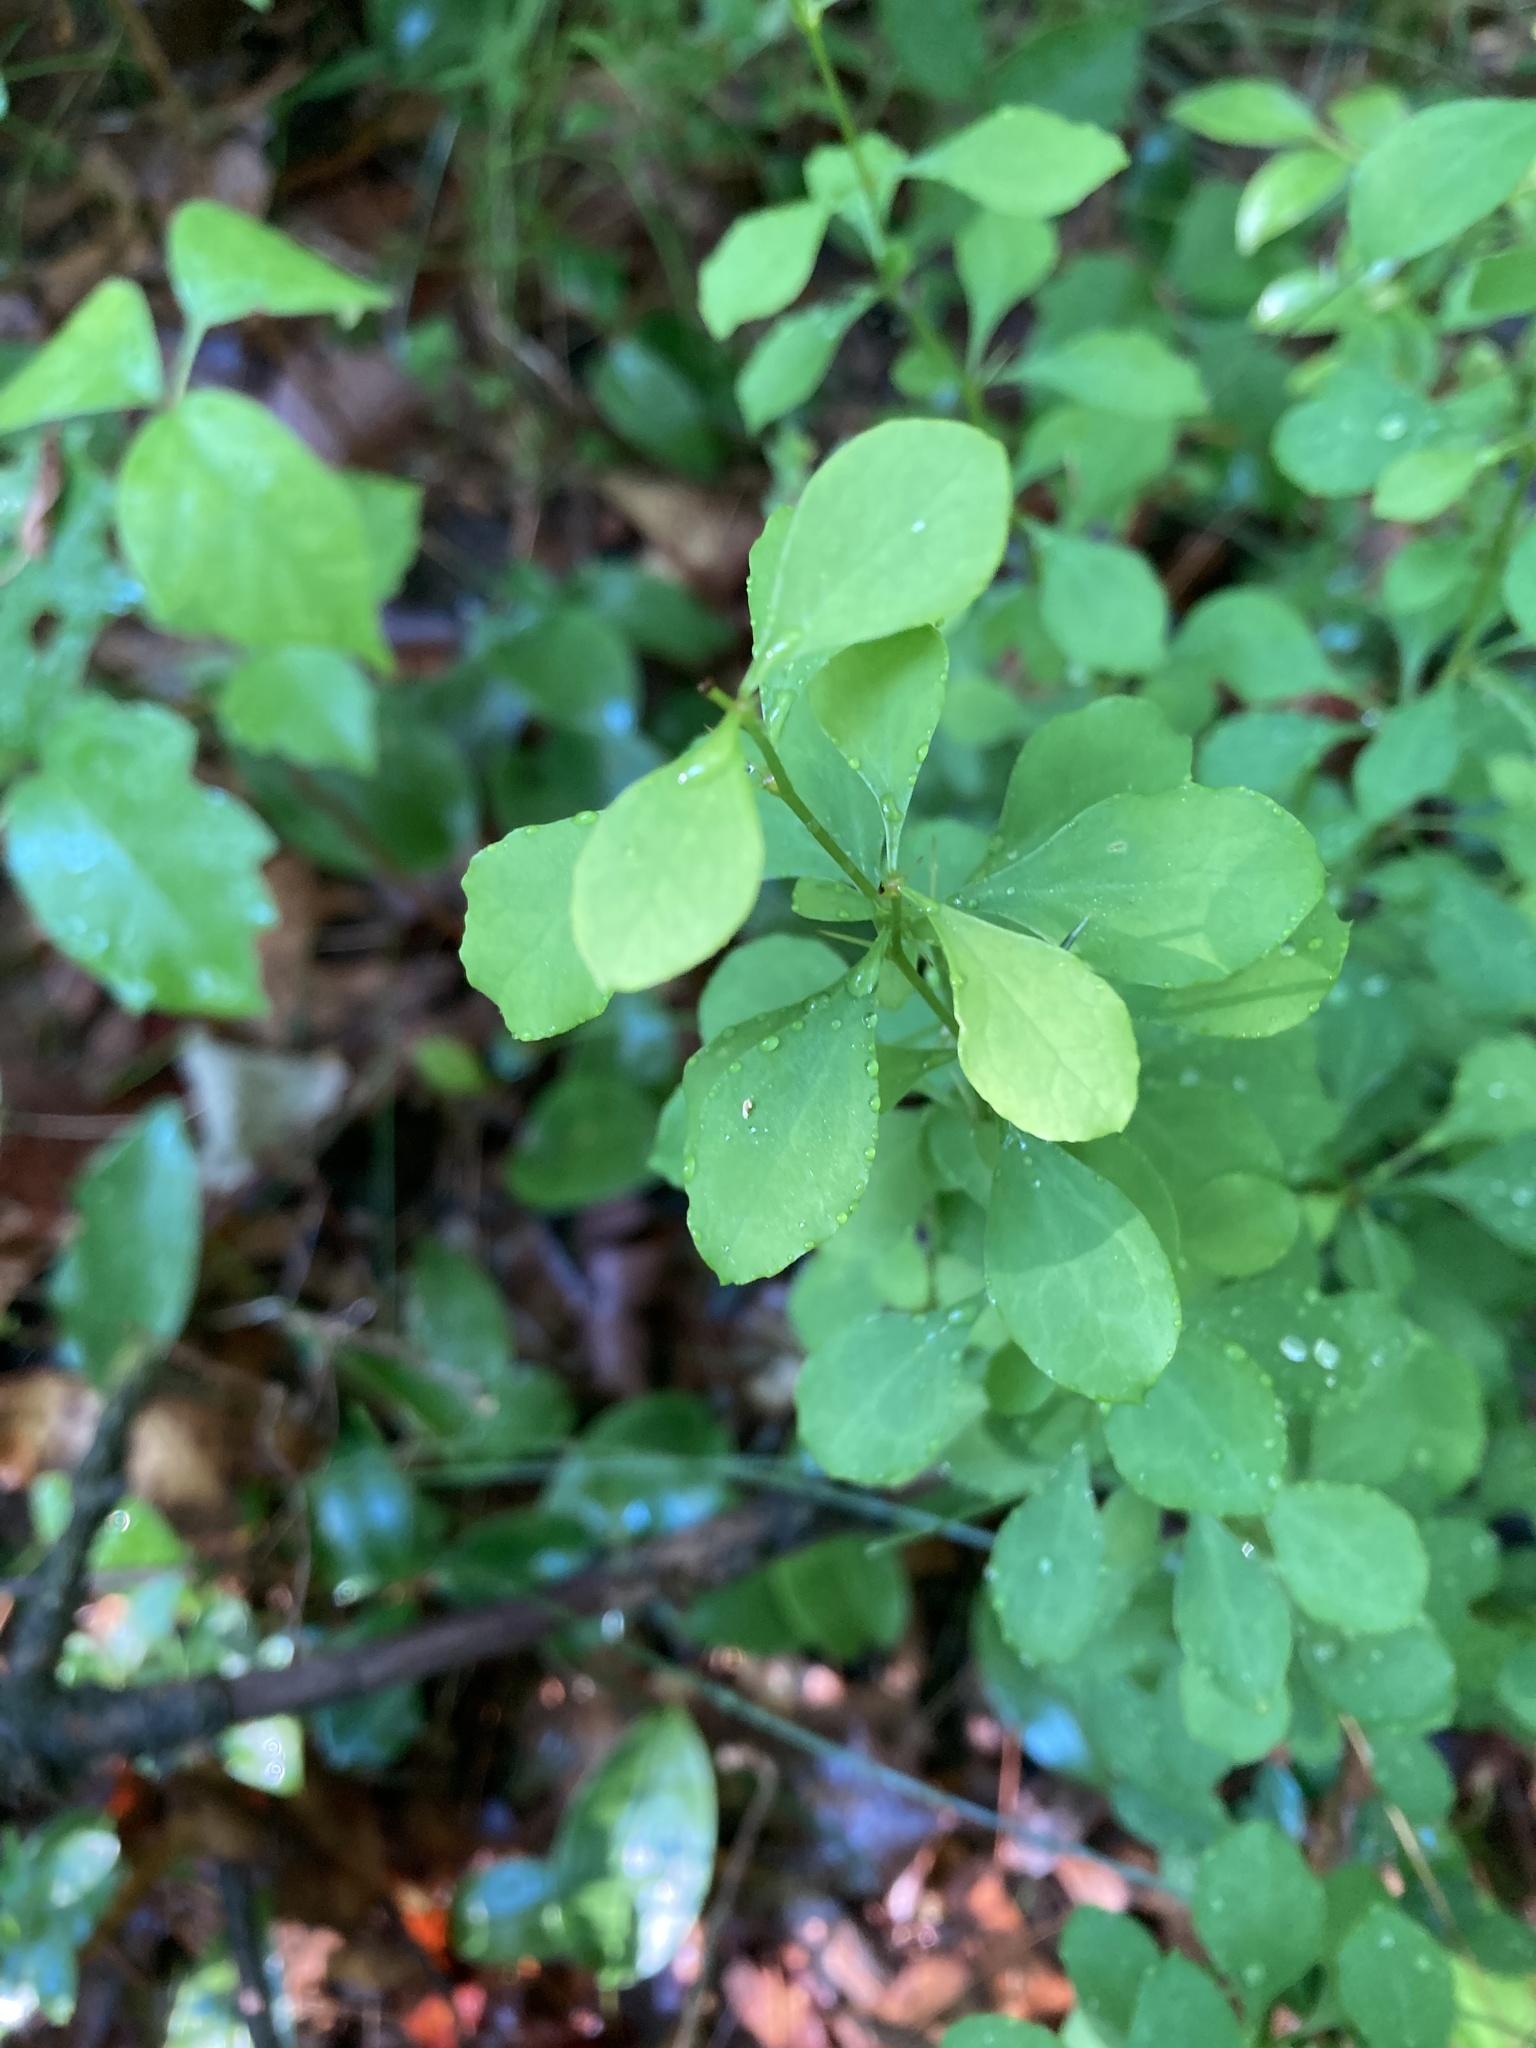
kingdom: Plantae
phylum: Tracheophyta
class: Magnoliopsida
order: Ranunculales
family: Berberidaceae
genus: Berberis
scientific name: Berberis thunbergii
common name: Japanese barberry
